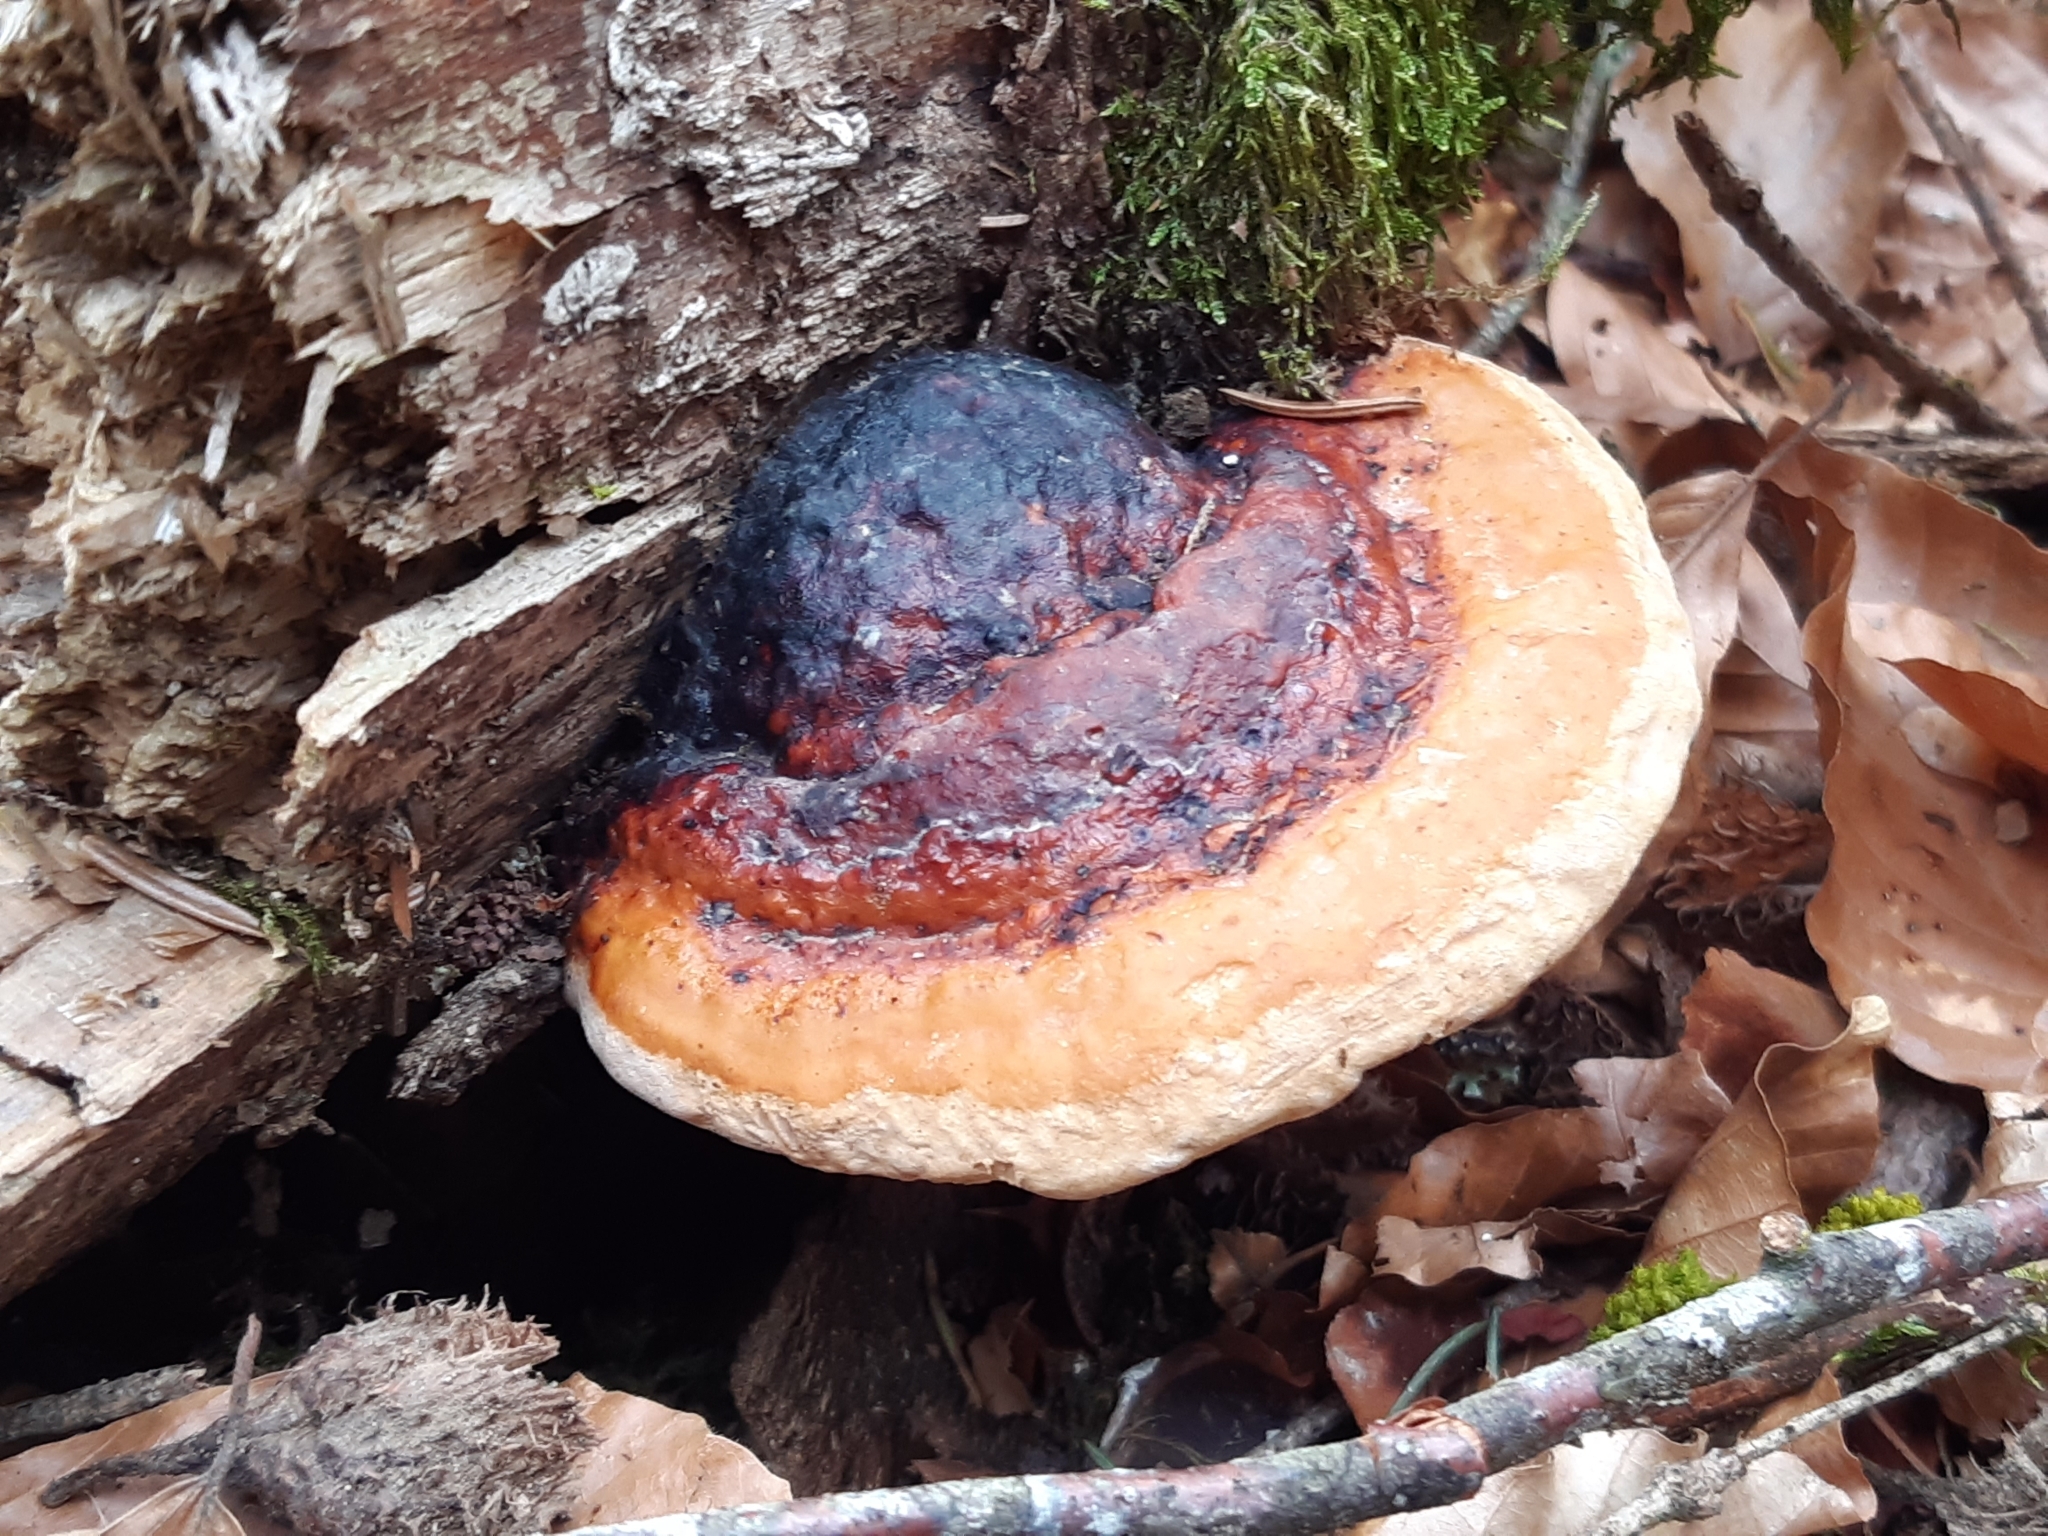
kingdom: Fungi
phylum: Basidiomycota
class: Agaricomycetes
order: Polyporales
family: Fomitopsidaceae
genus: Fomitopsis
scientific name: Fomitopsis pinicola
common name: Red-belted bracket
